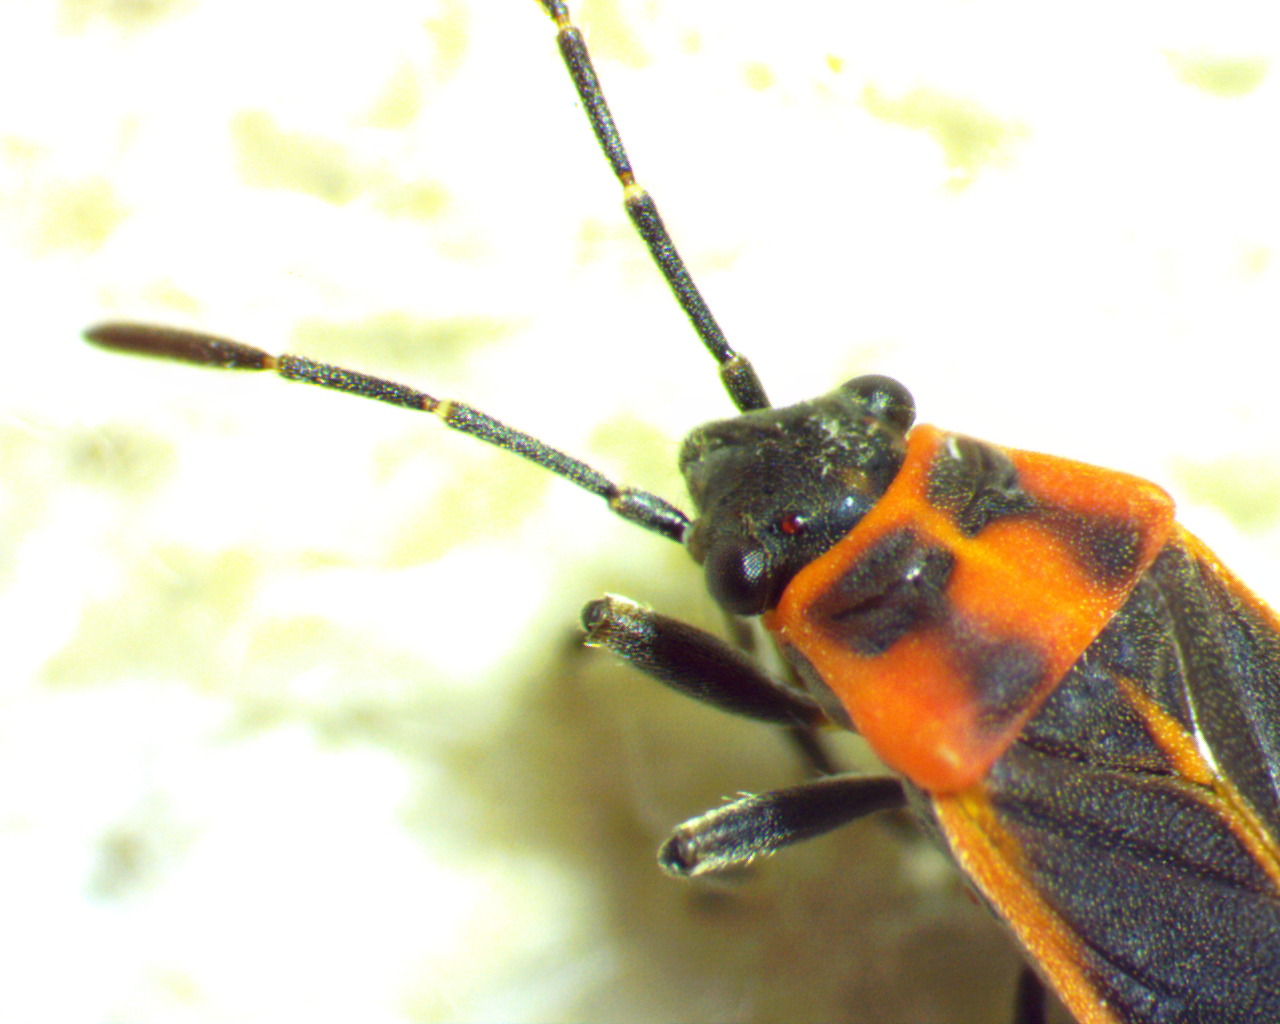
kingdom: Animalia
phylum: Arthropoda
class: Insecta
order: Hemiptera
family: Lygaeidae
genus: Ochrimnus
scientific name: Ochrimnus lineoloides
